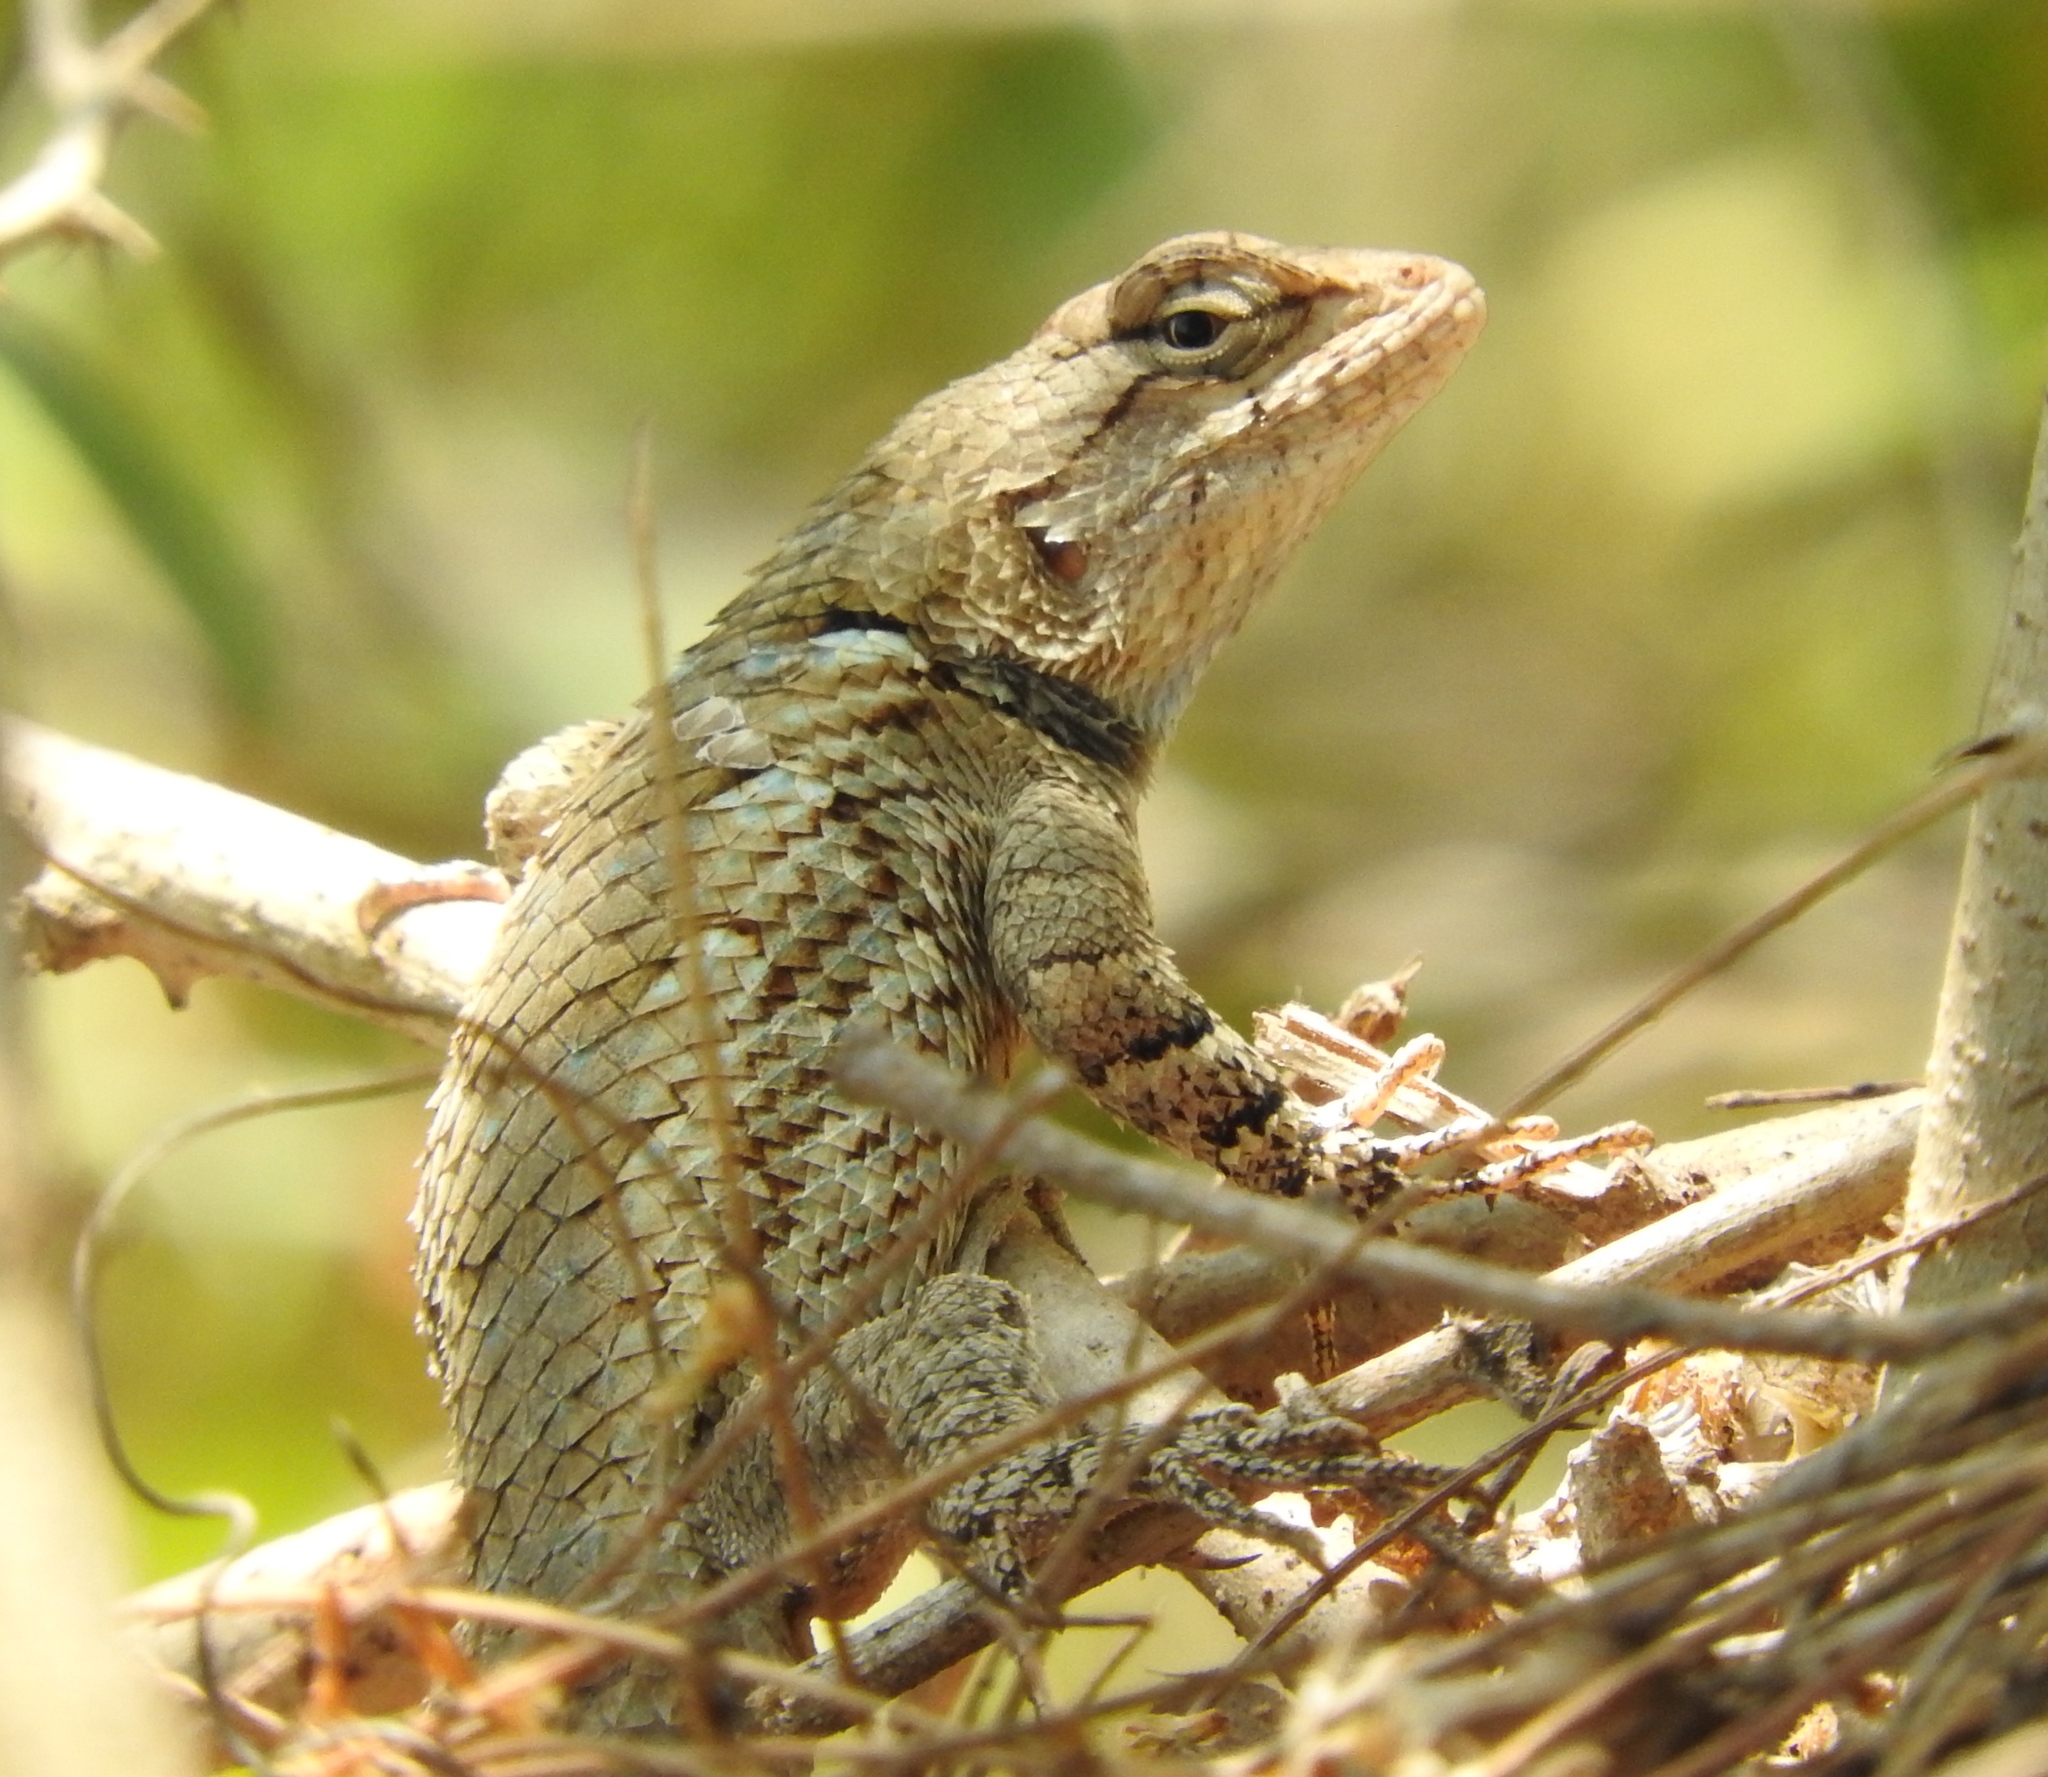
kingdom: Animalia
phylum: Chordata
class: Squamata
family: Phrynosomatidae
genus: Sceloporus
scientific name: Sceloporus clarkii
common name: Clark's spiny lizard
